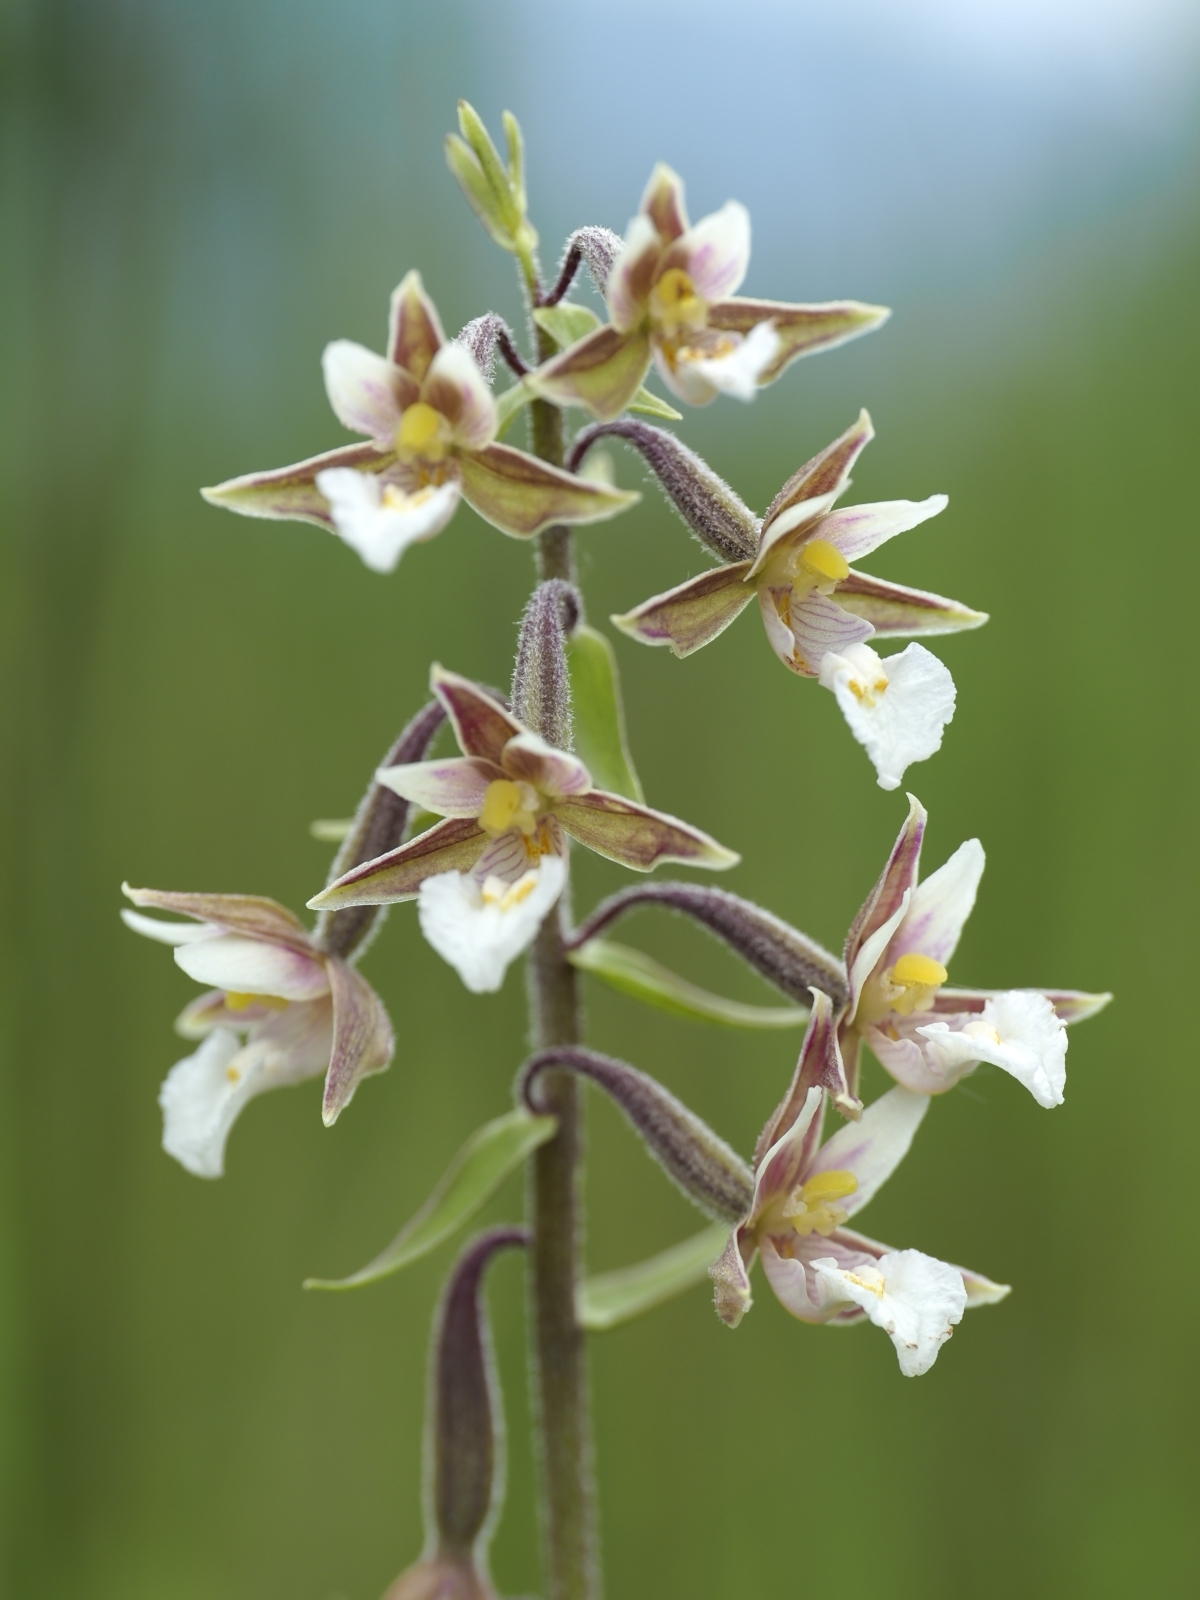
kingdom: Plantae
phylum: Tracheophyta
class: Liliopsida
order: Asparagales
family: Orchidaceae
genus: Epipactis
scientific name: Epipactis palustris
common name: Marsh helleborine
